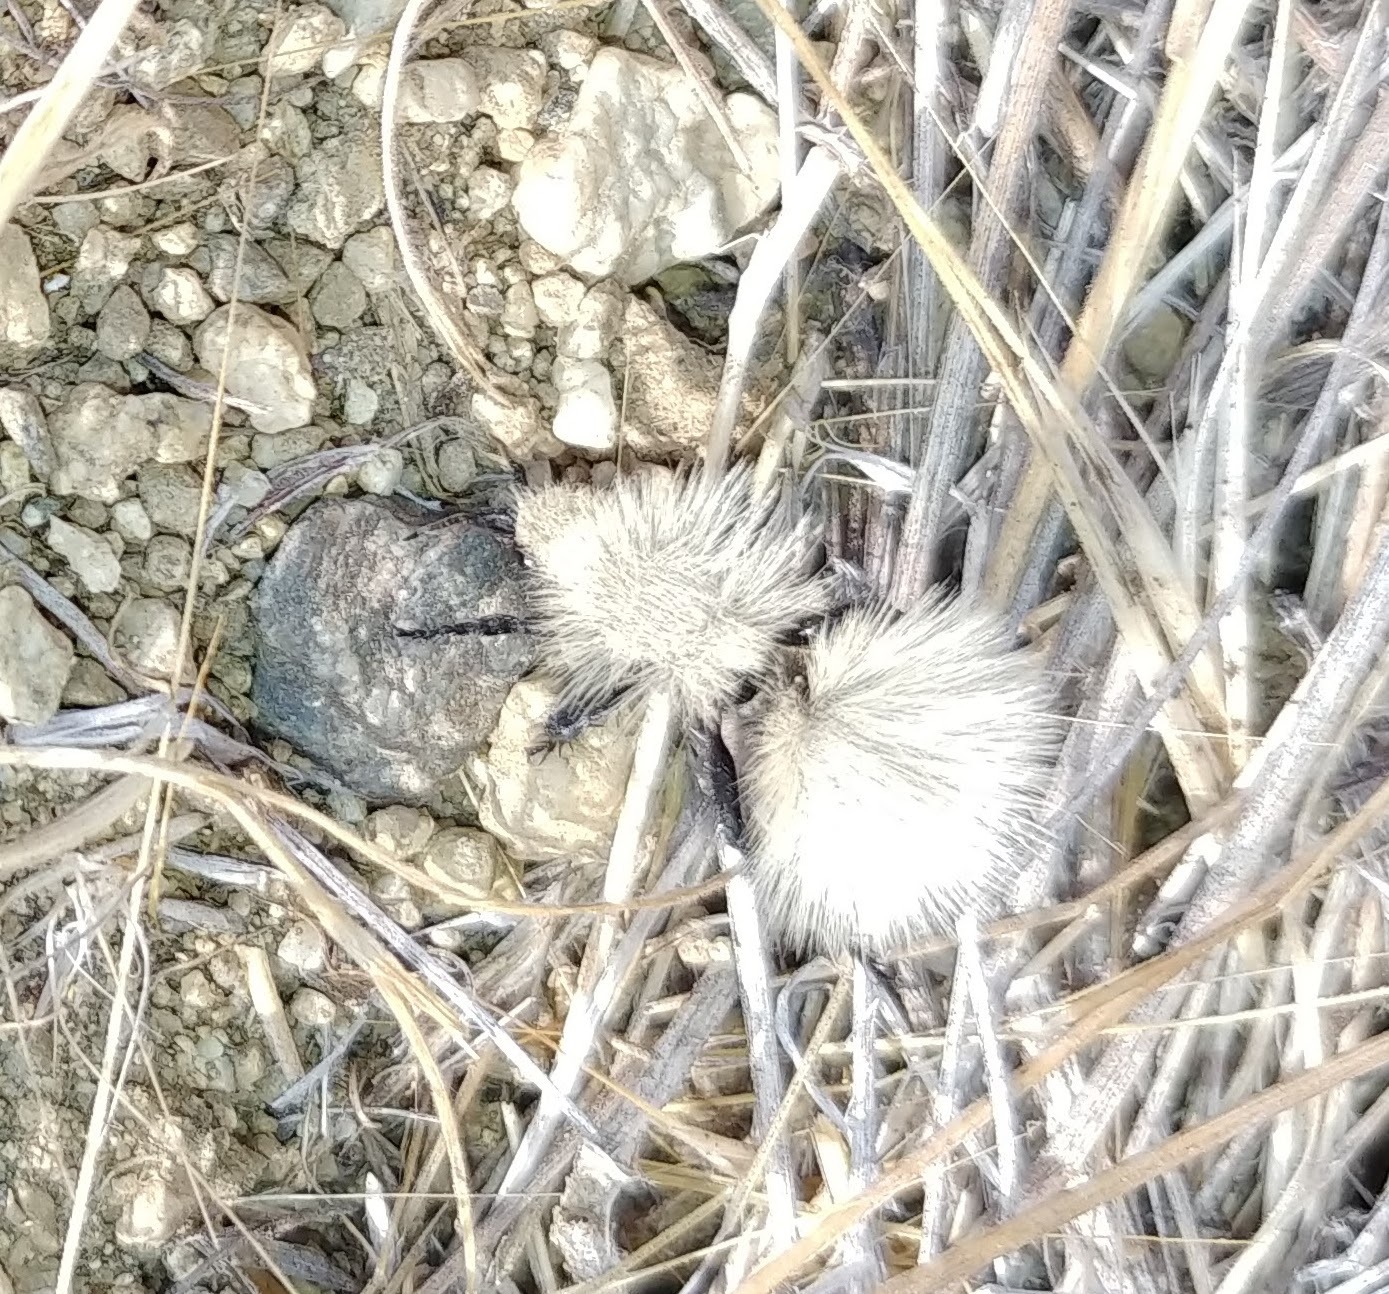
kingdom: Animalia
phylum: Arthropoda
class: Insecta
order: Hymenoptera
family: Mutillidae
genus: Dasymutilla
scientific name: Dasymutilla
